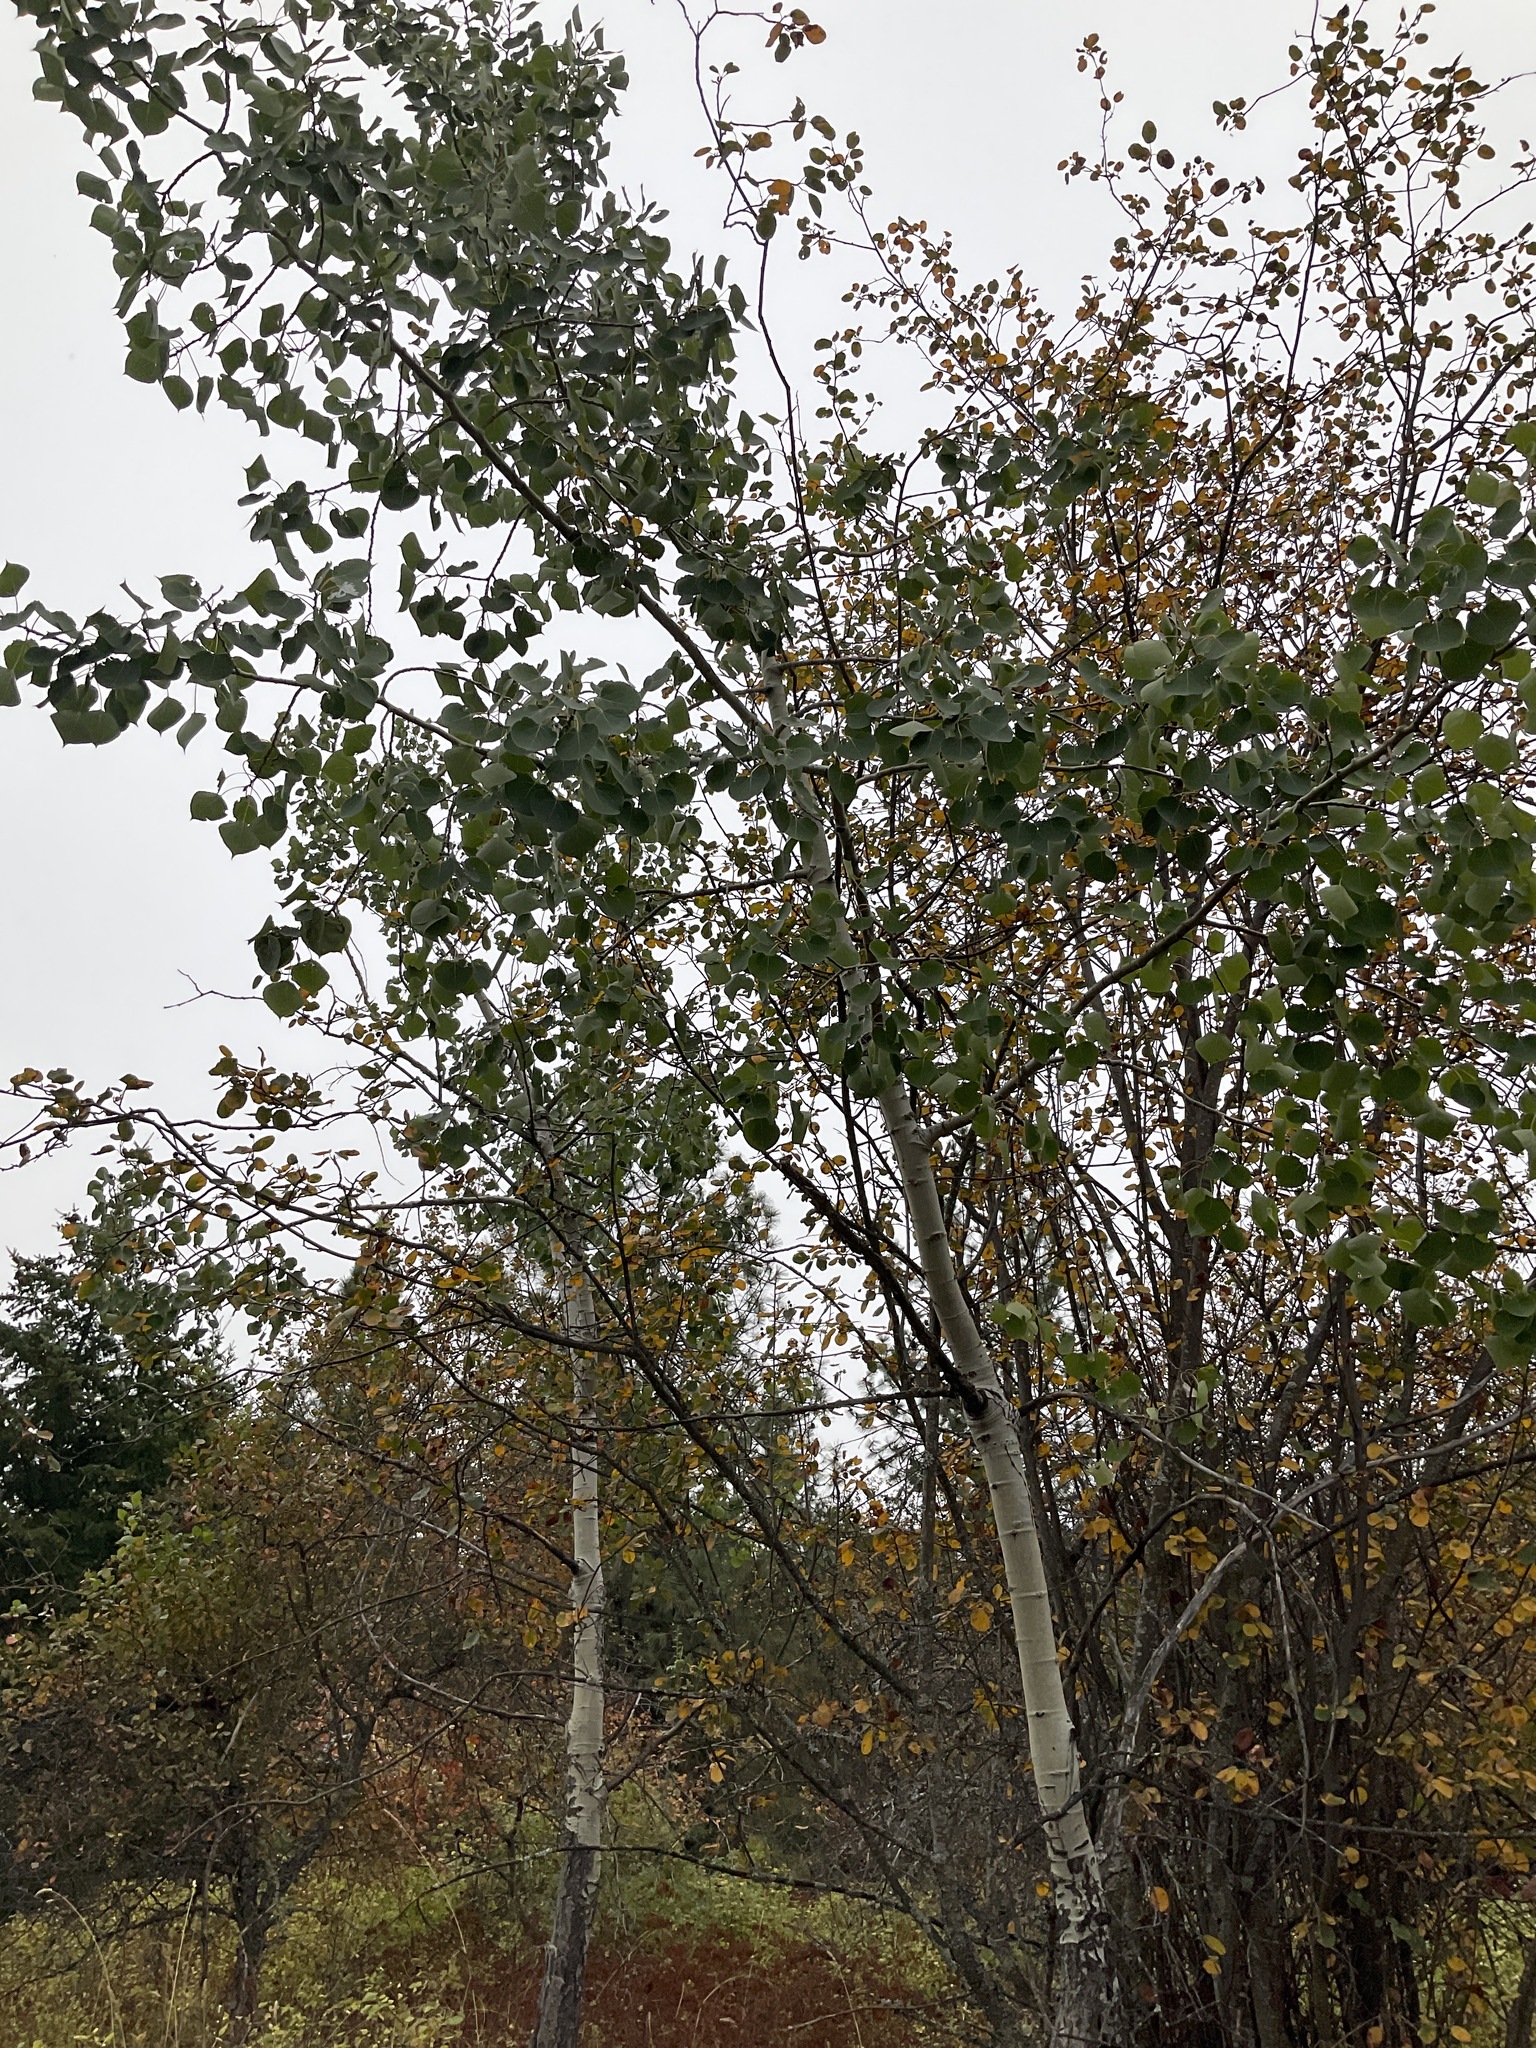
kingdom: Plantae
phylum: Tracheophyta
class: Magnoliopsida
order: Malpighiales
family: Salicaceae
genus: Populus
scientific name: Populus tremuloides
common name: Quaking aspen
